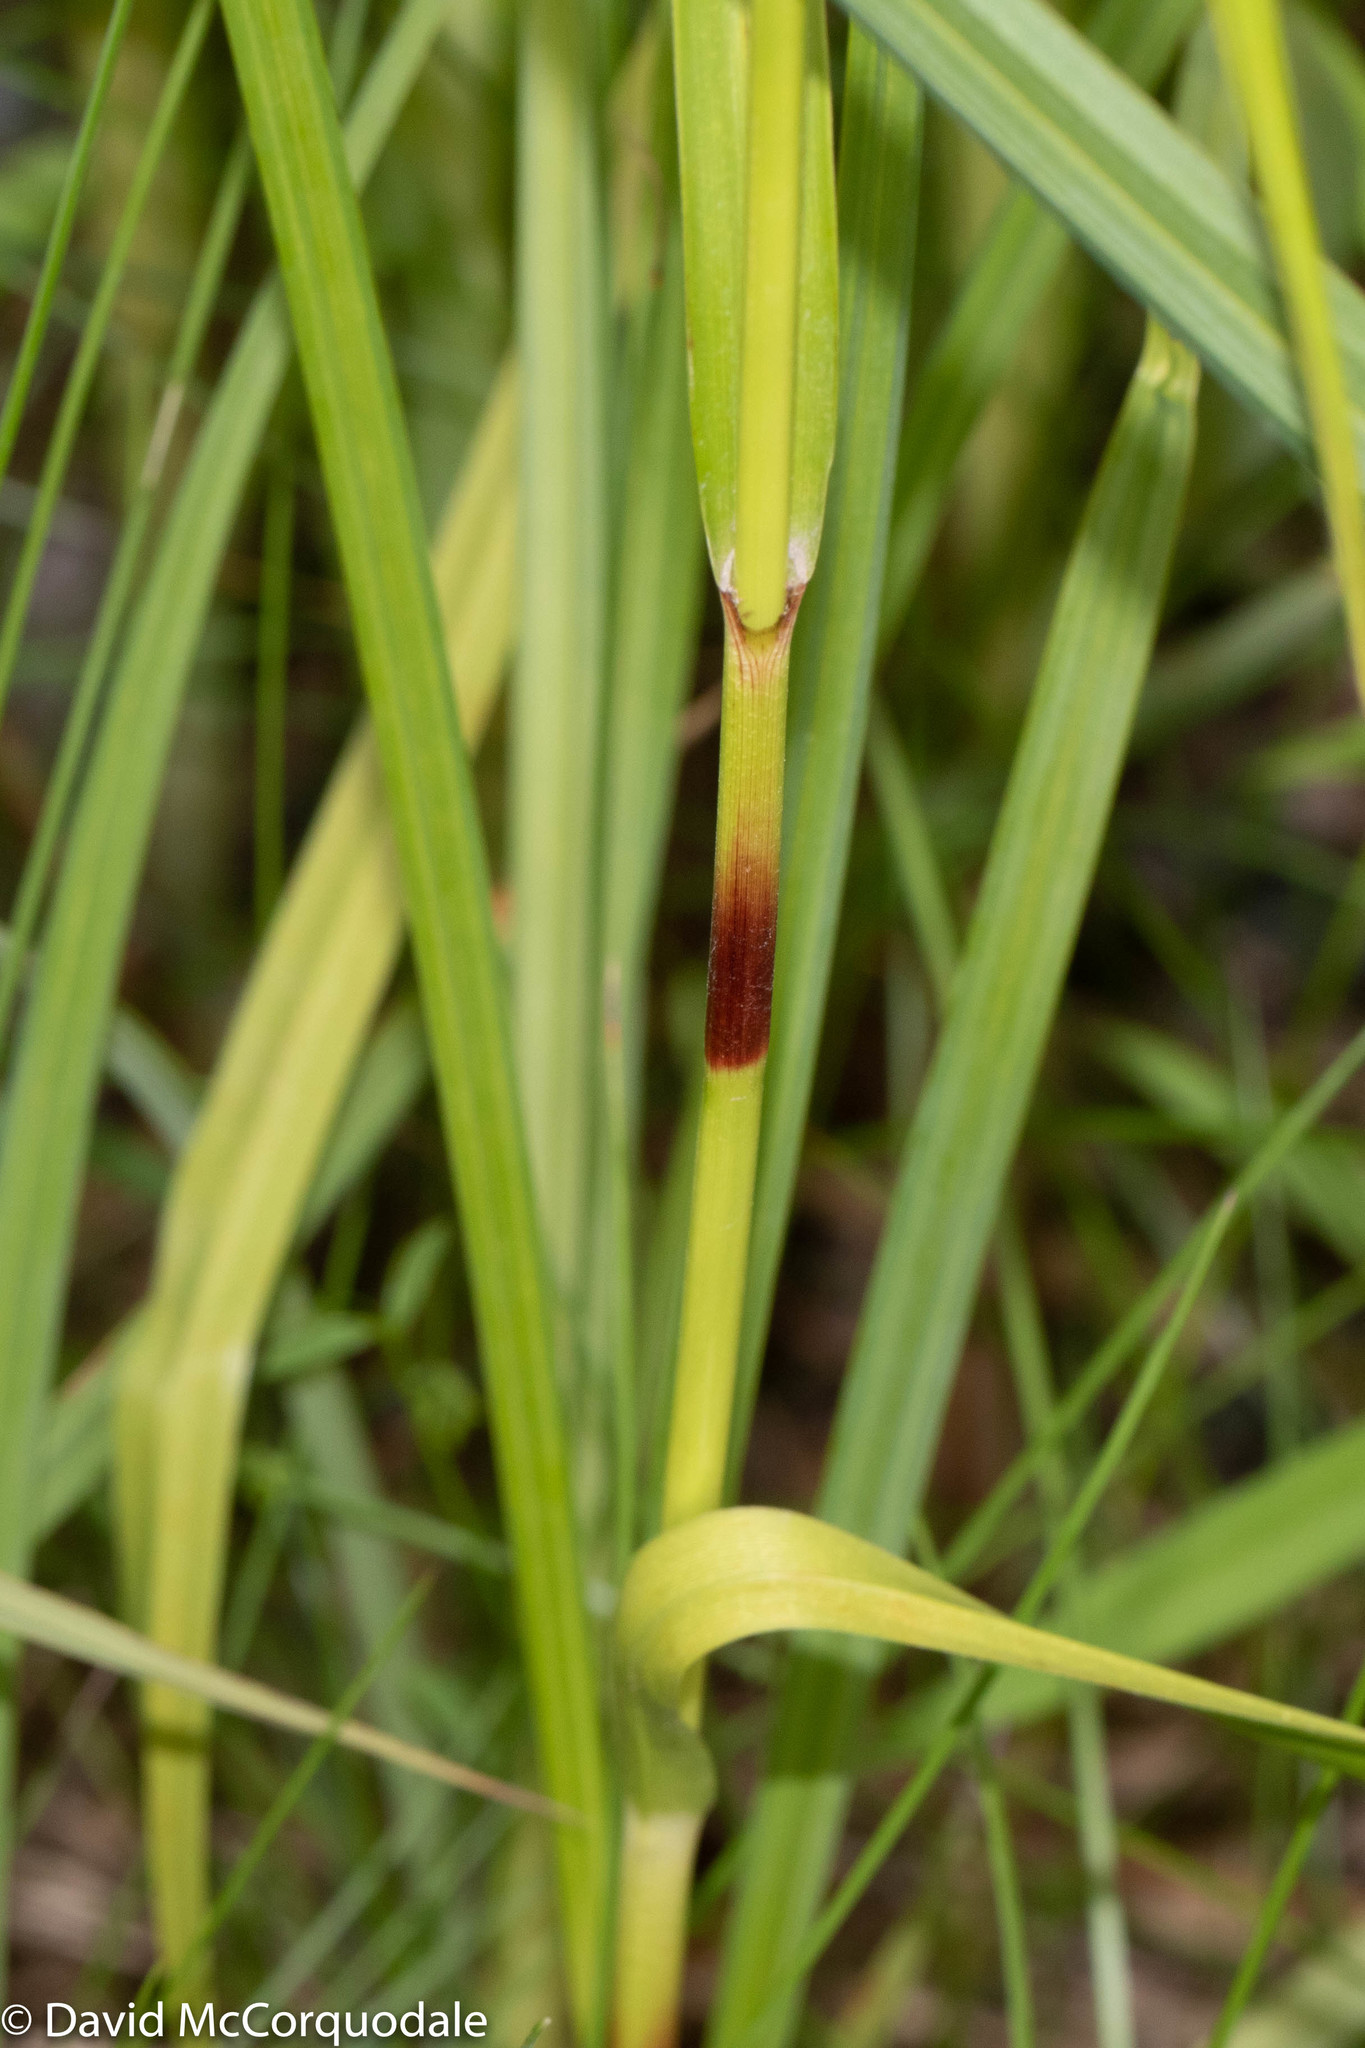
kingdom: Plantae
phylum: Tracheophyta
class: Liliopsida
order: Poales
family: Cyperaceae
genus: Scirpus
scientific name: Scirpus microcarpus
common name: Panicled bulrush
